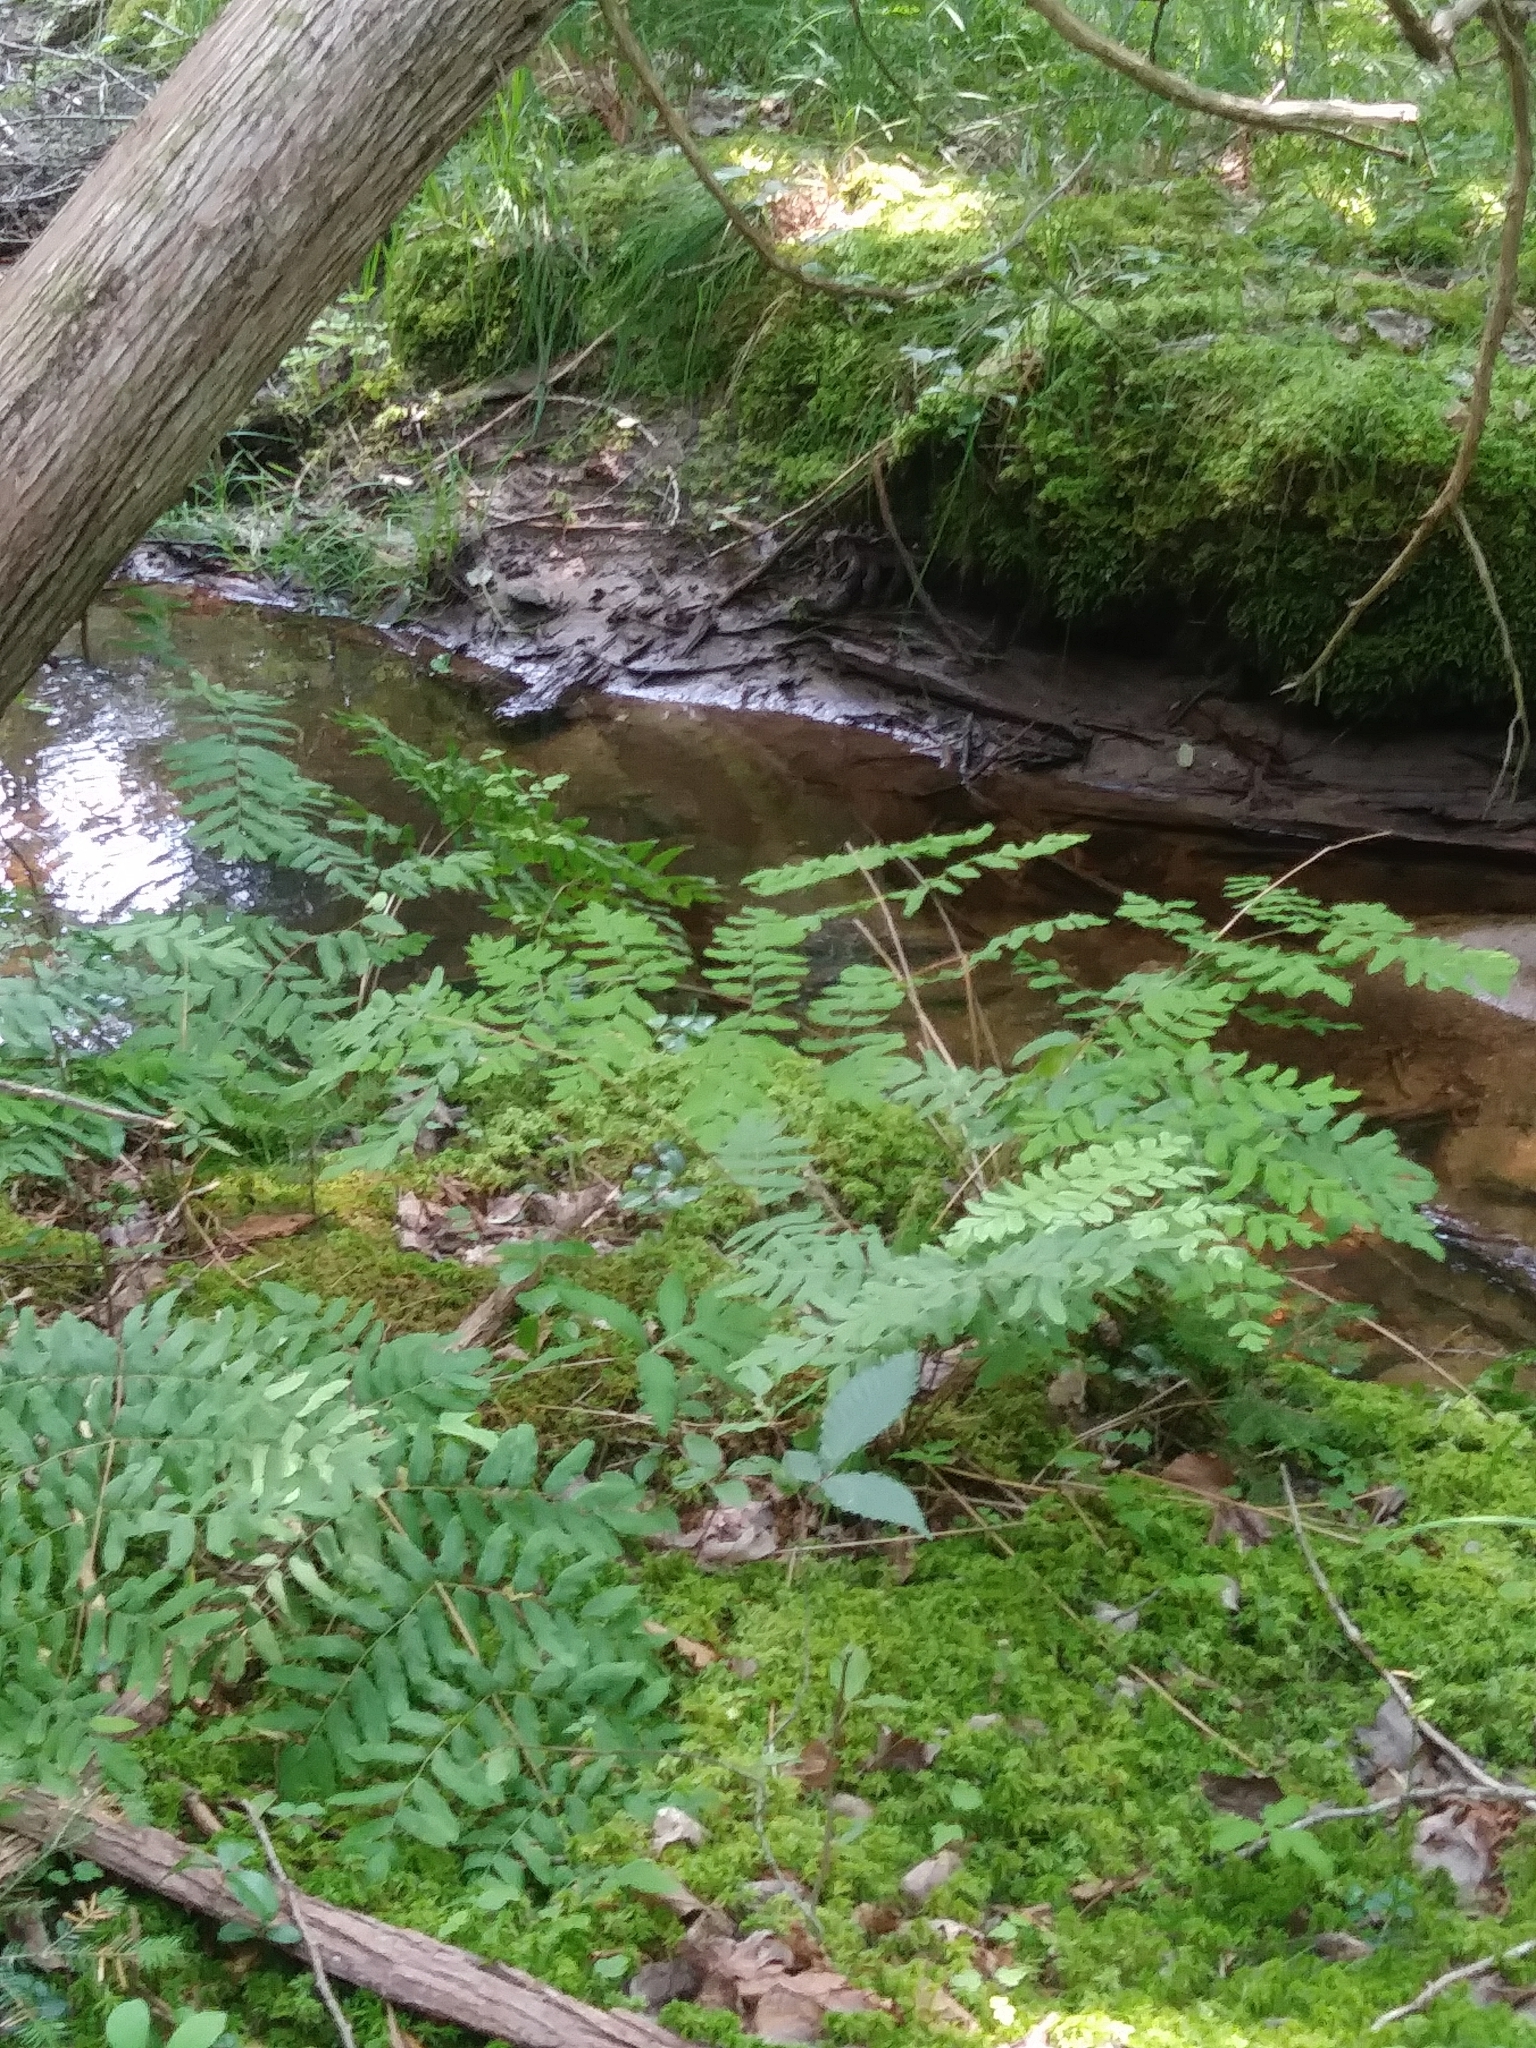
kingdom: Plantae
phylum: Tracheophyta
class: Polypodiopsida
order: Osmundales
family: Osmundaceae
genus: Osmunda
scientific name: Osmunda spectabilis
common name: American royal fern
